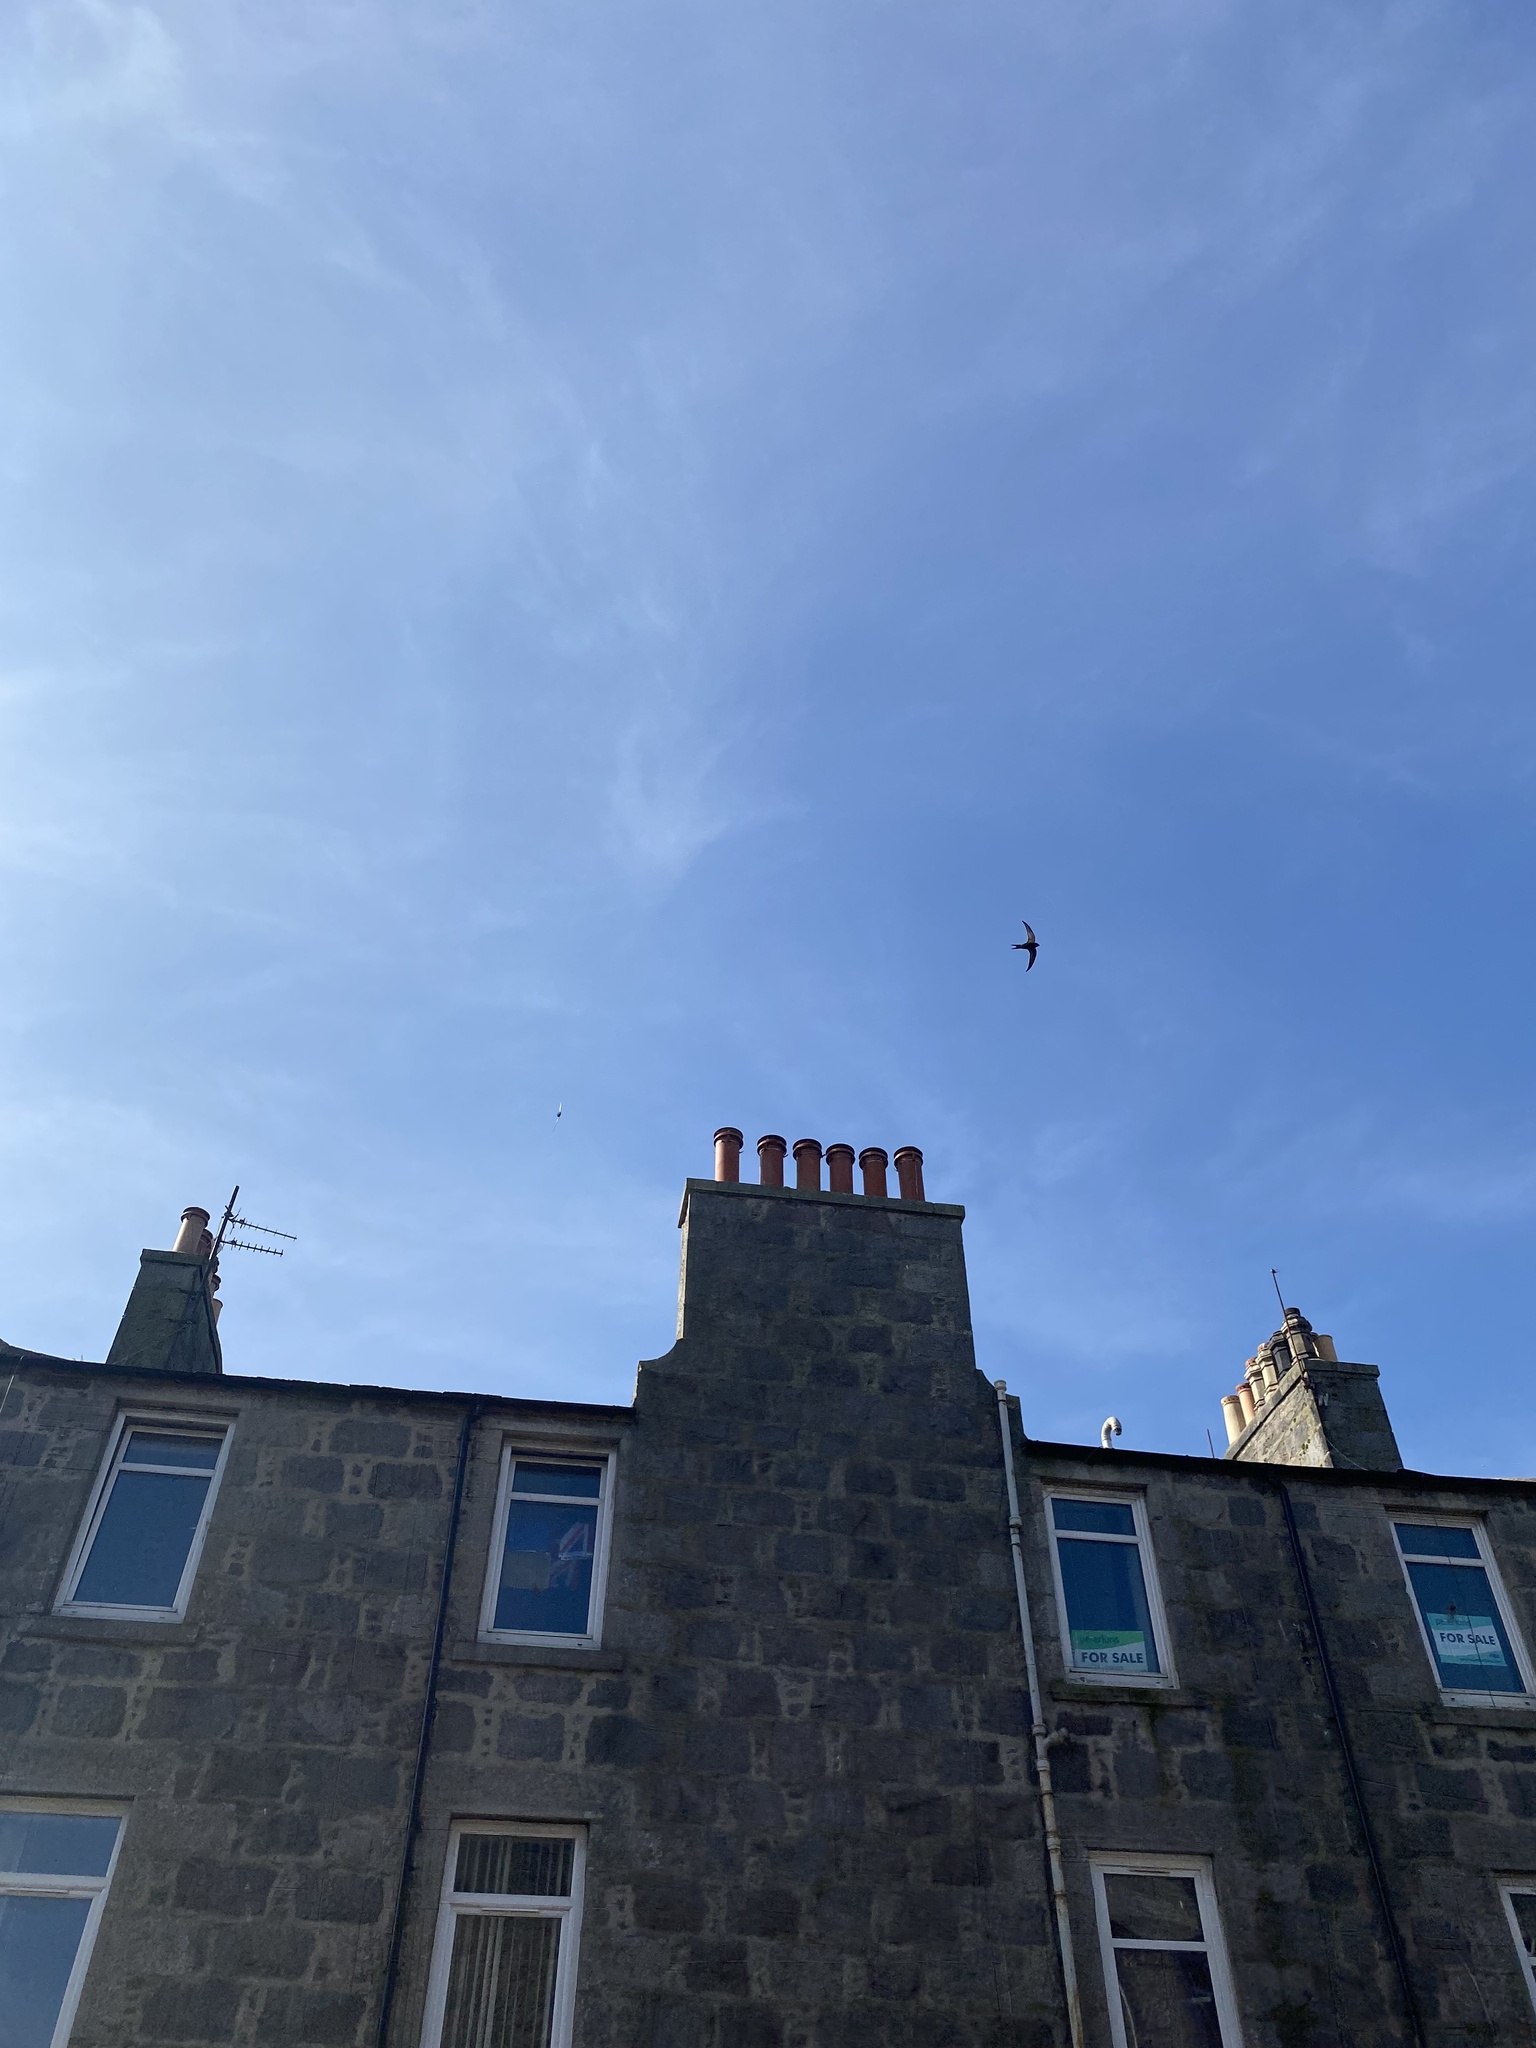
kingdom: Animalia
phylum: Chordata
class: Aves
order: Apodiformes
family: Apodidae
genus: Apus
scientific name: Apus apus
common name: Common swift
